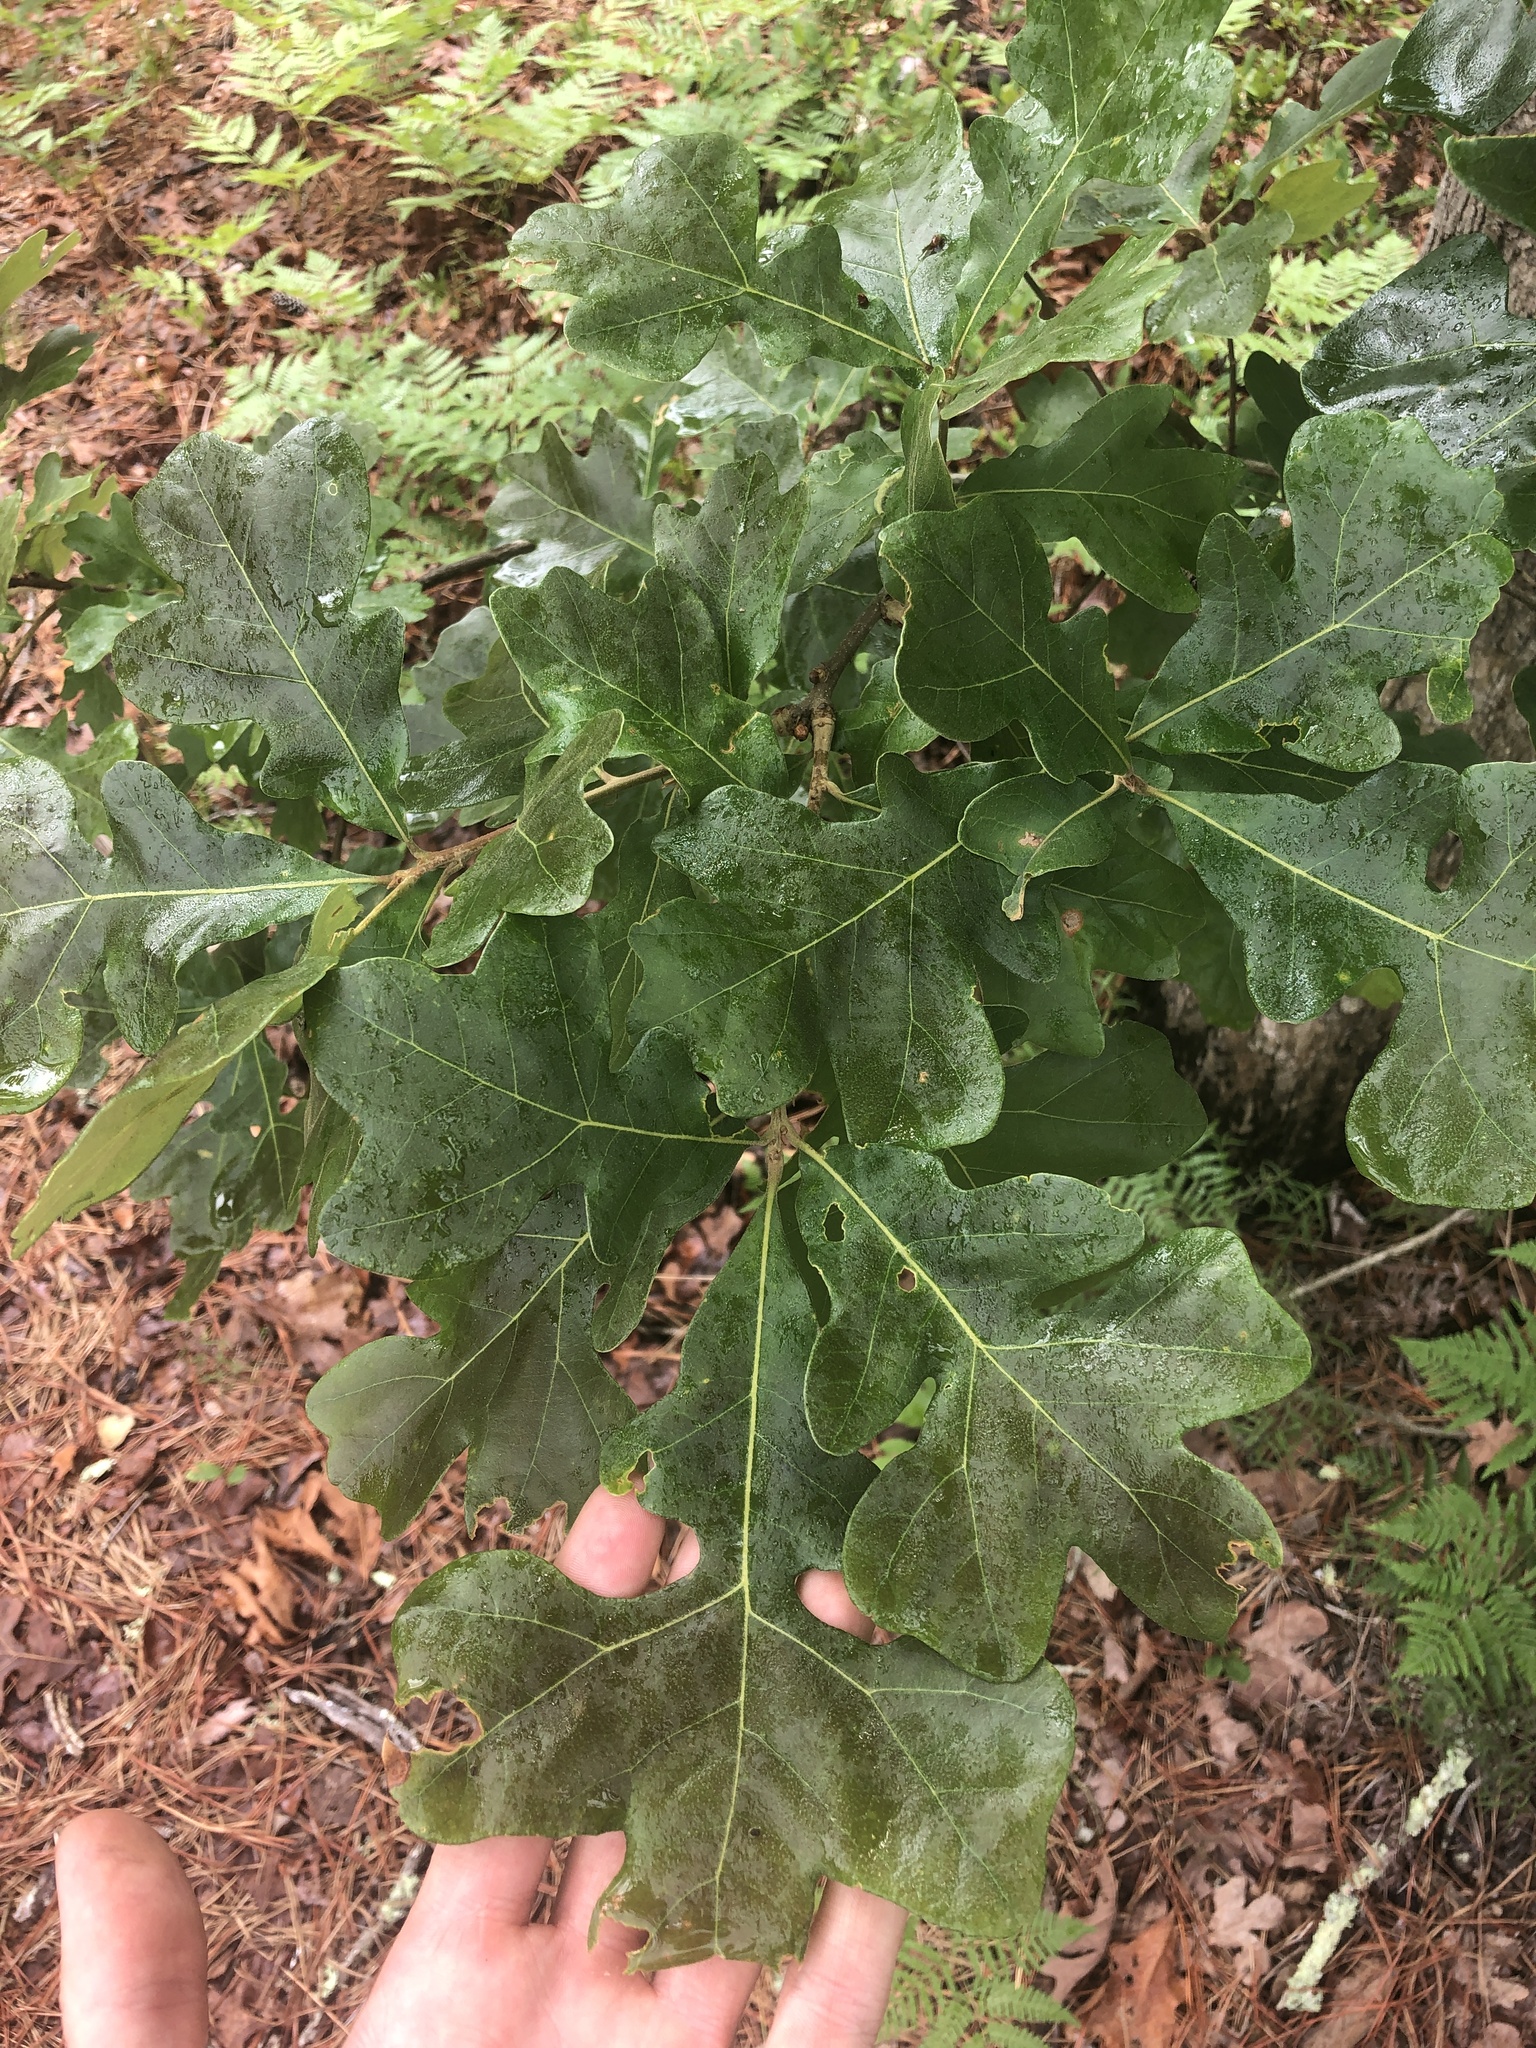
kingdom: Plantae
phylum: Tracheophyta
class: Magnoliopsida
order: Fagales
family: Fagaceae
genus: Quercus
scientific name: Quercus stellata
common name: Post oak
